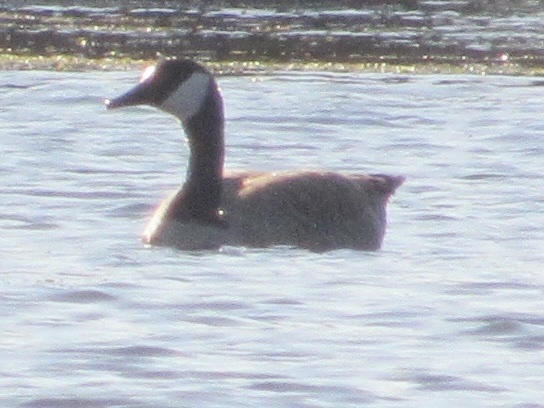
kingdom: Animalia
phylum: Chordata
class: Aves
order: Anseriformes
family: Anatidae
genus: Branta
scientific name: Branta canadensis
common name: Canada goose
